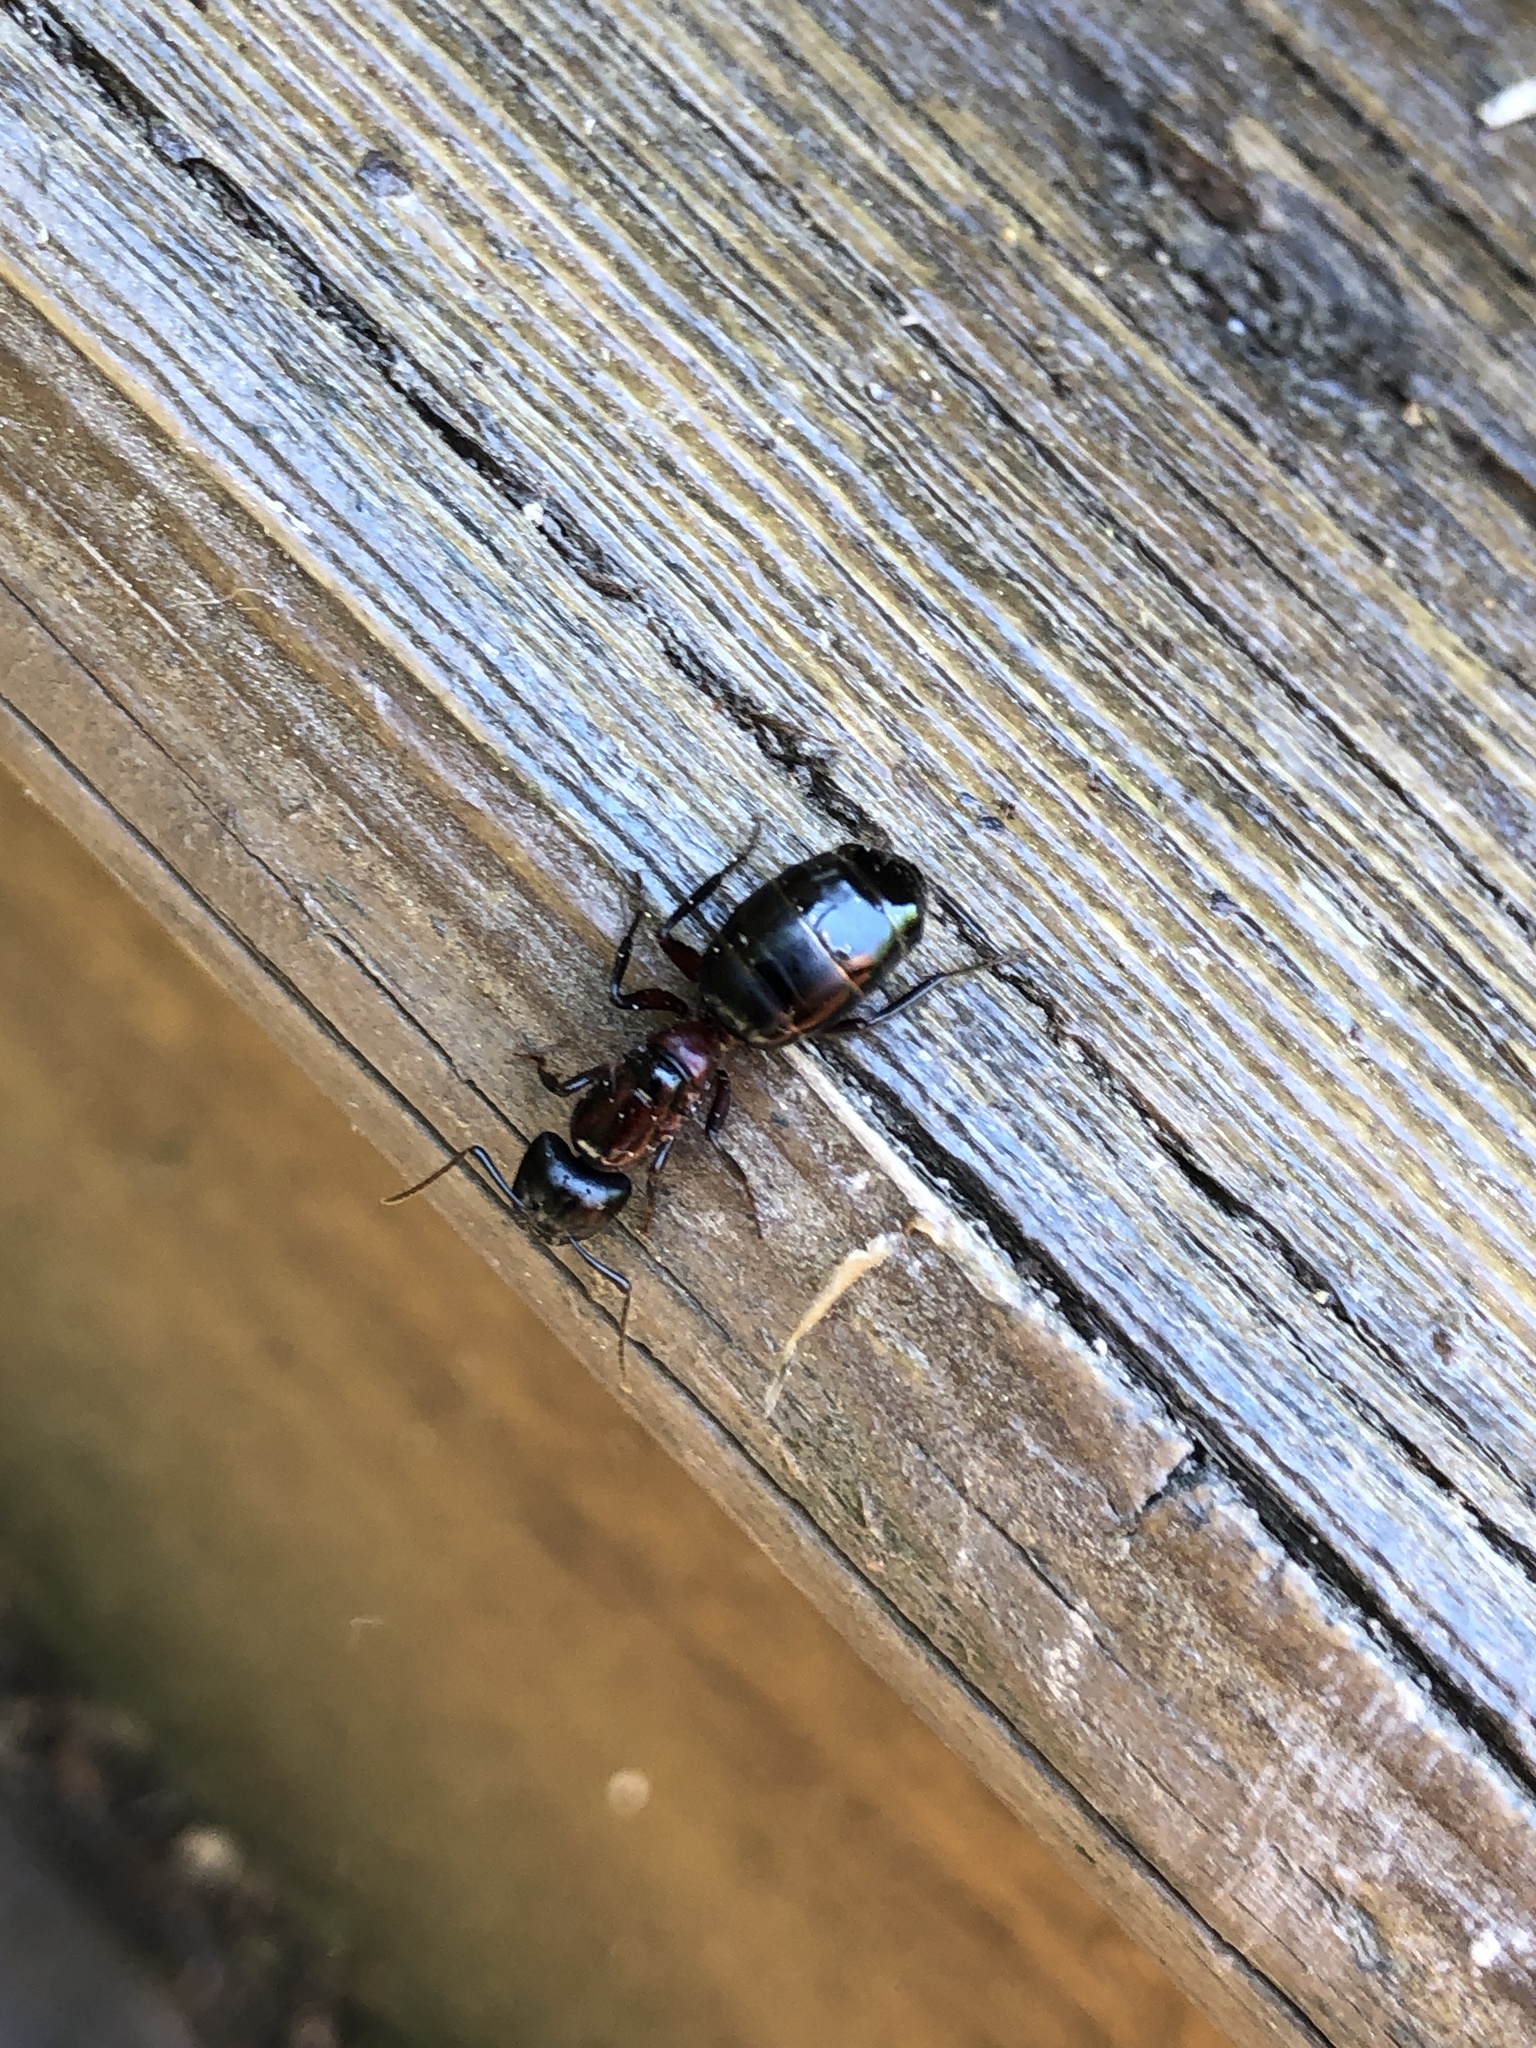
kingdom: Animalia
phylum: Arthropoda
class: Insecta
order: Hymenoptera
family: Formicidae
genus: Camponotus
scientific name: Camponotus novaeboracensis
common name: New york carpenter ant
